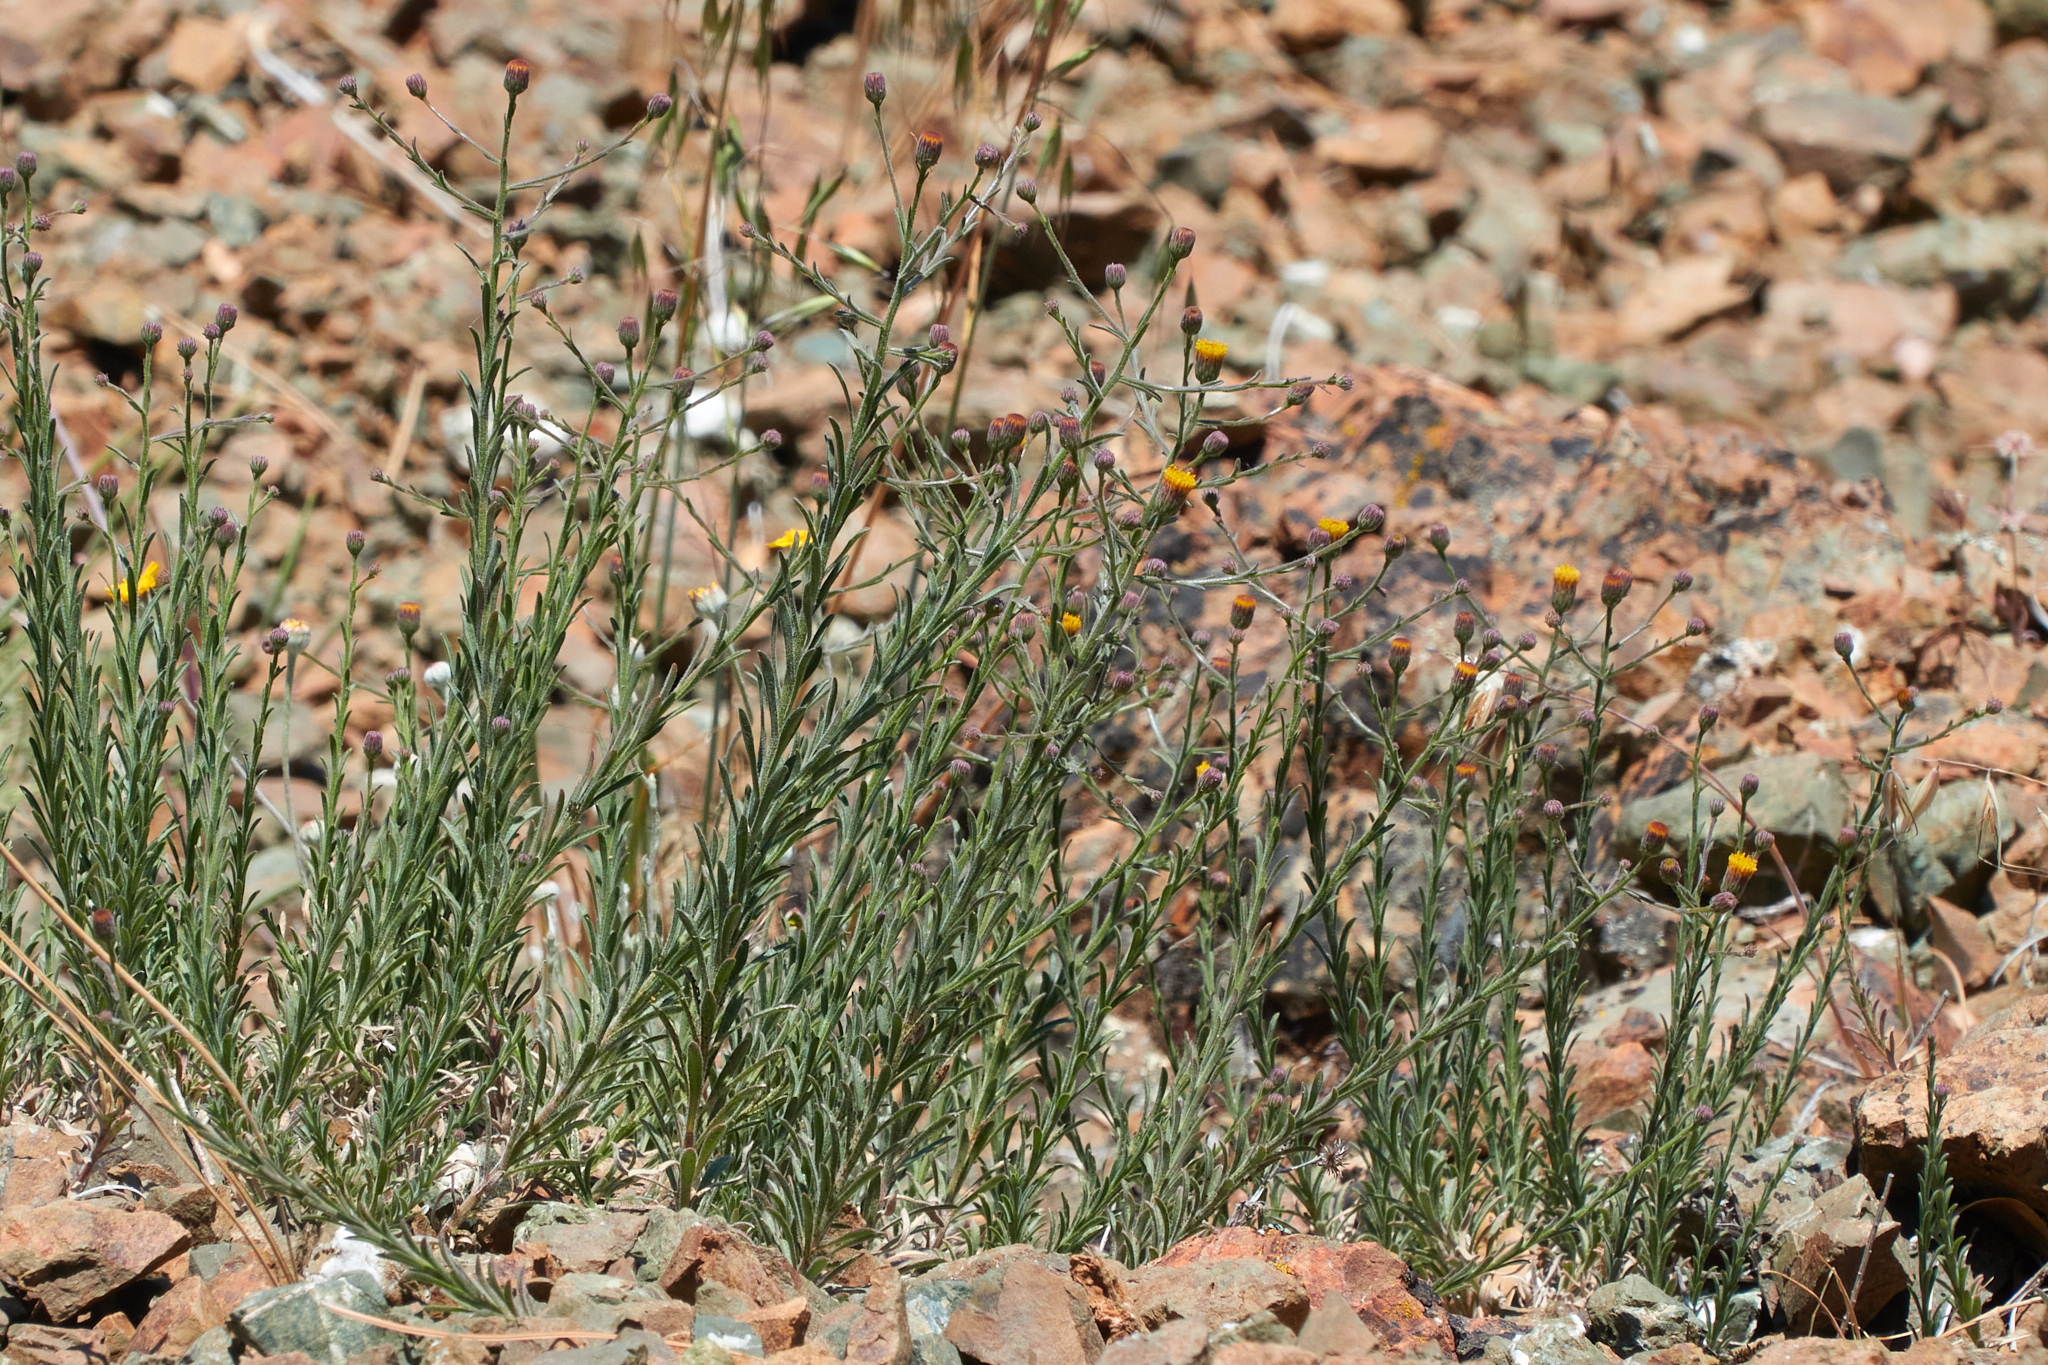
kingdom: Plantae
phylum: Tracheophyta
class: Magnoliopsida
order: Asterales
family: Asteraceae
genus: Erigeron
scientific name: Erigeron petrophilus
